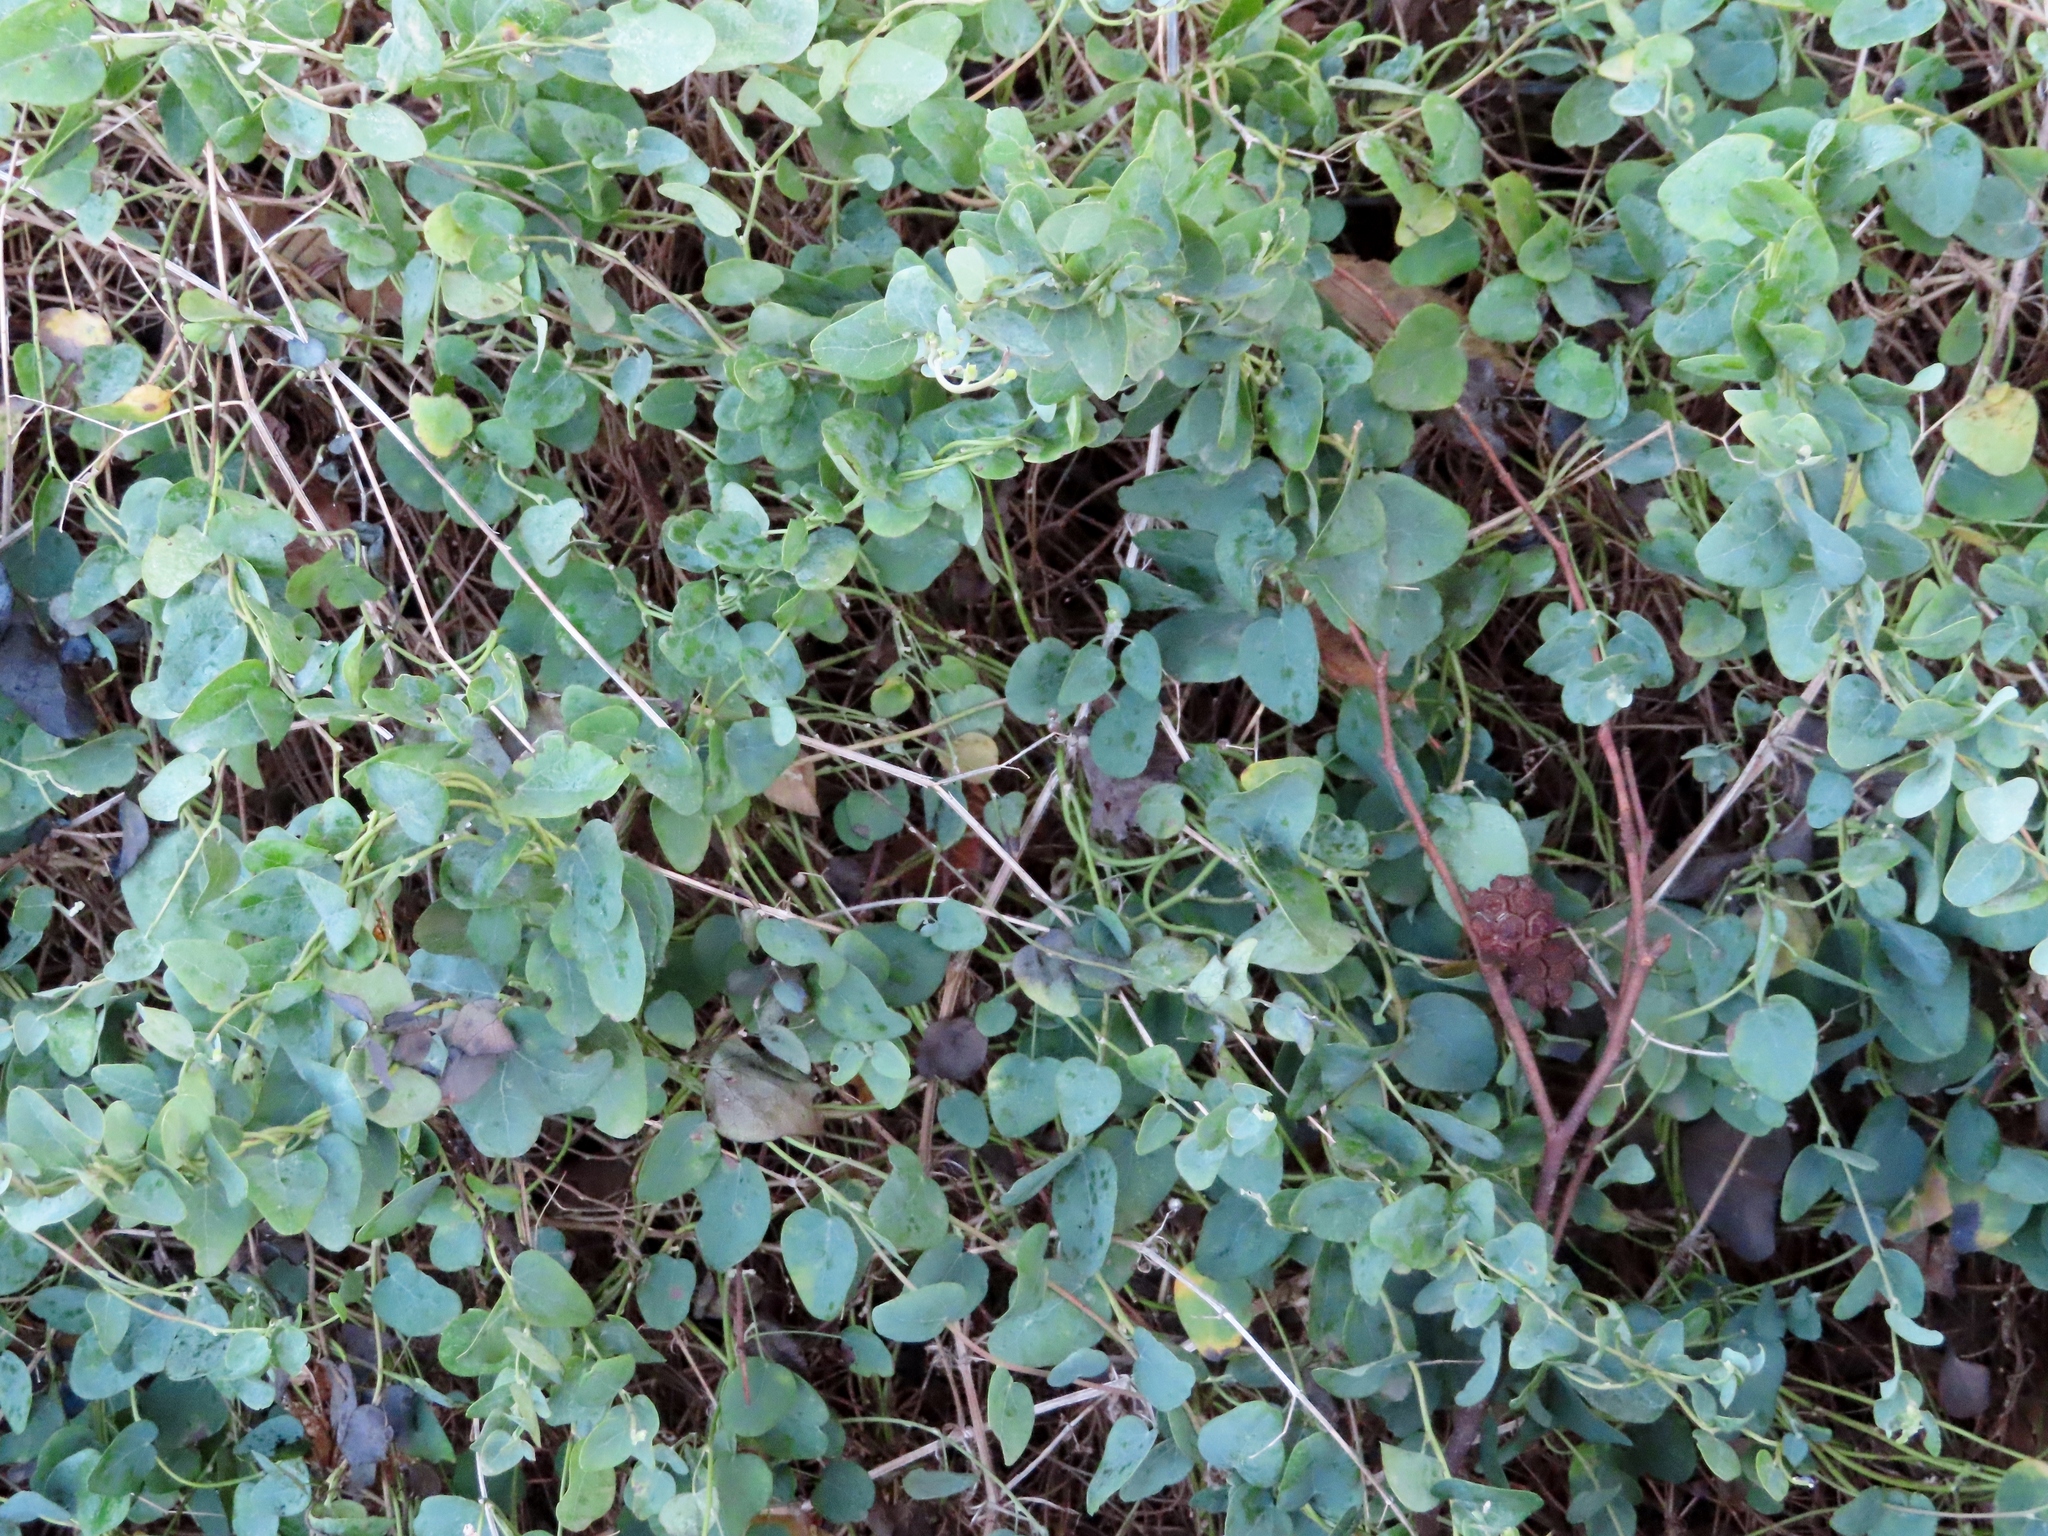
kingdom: Plantae
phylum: Tracheophyta
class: Magnoliopsida
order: Ranunculales
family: Menispermaceae
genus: Cissampelos
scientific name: Cissampelos capensis
